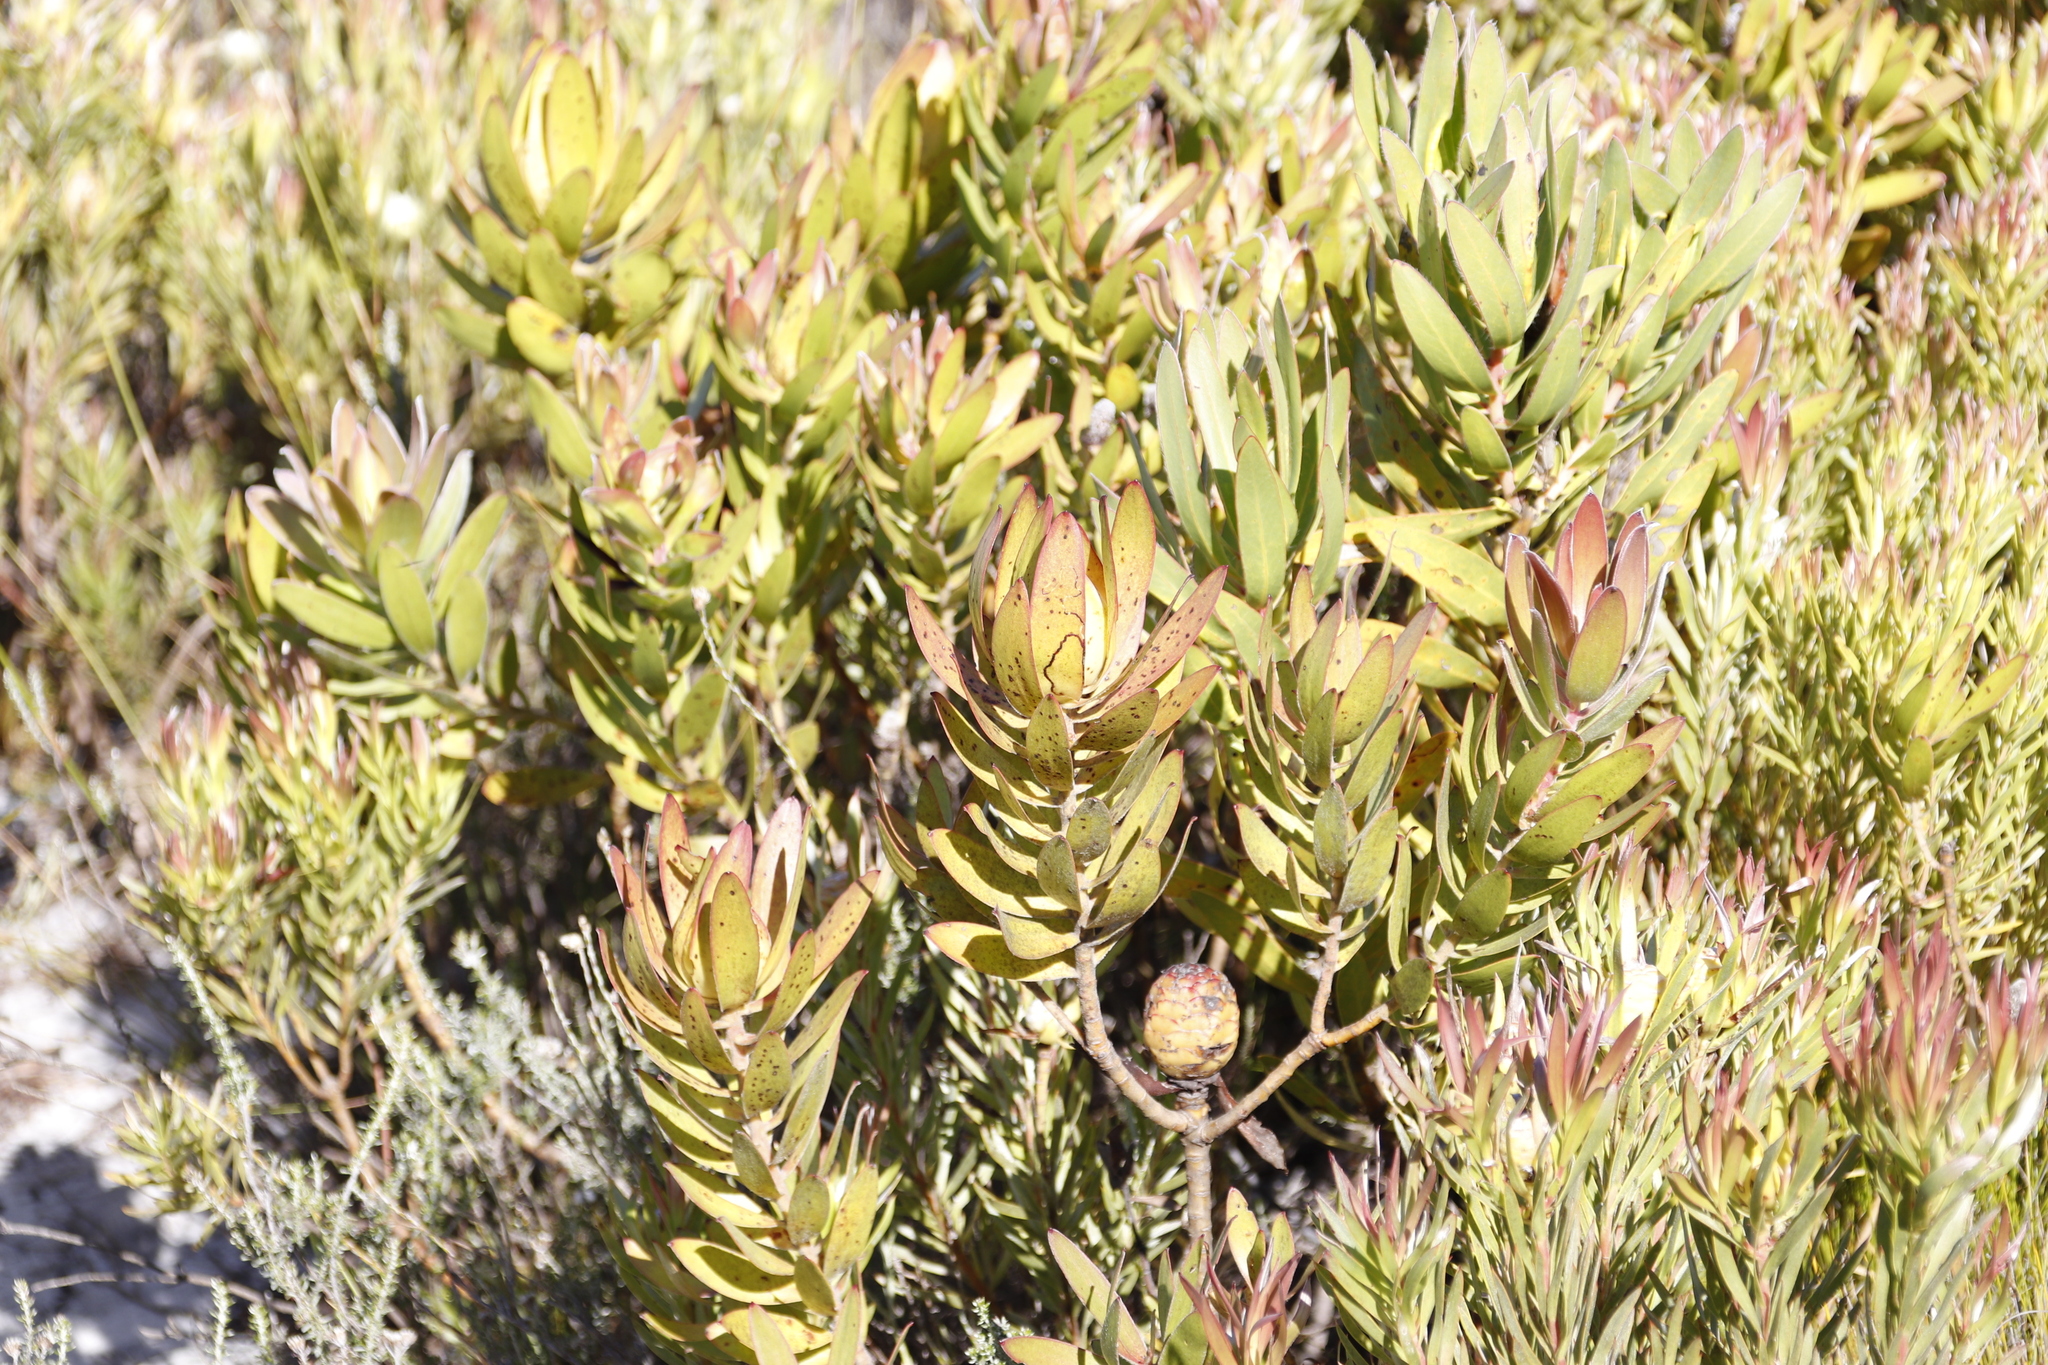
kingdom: Plantae
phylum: Tracheophyta
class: Magnoliopsida
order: Proteales
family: Proteaceae
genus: Leucadendron
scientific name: Leucadendron laureolum
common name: Golden sunshinebush
